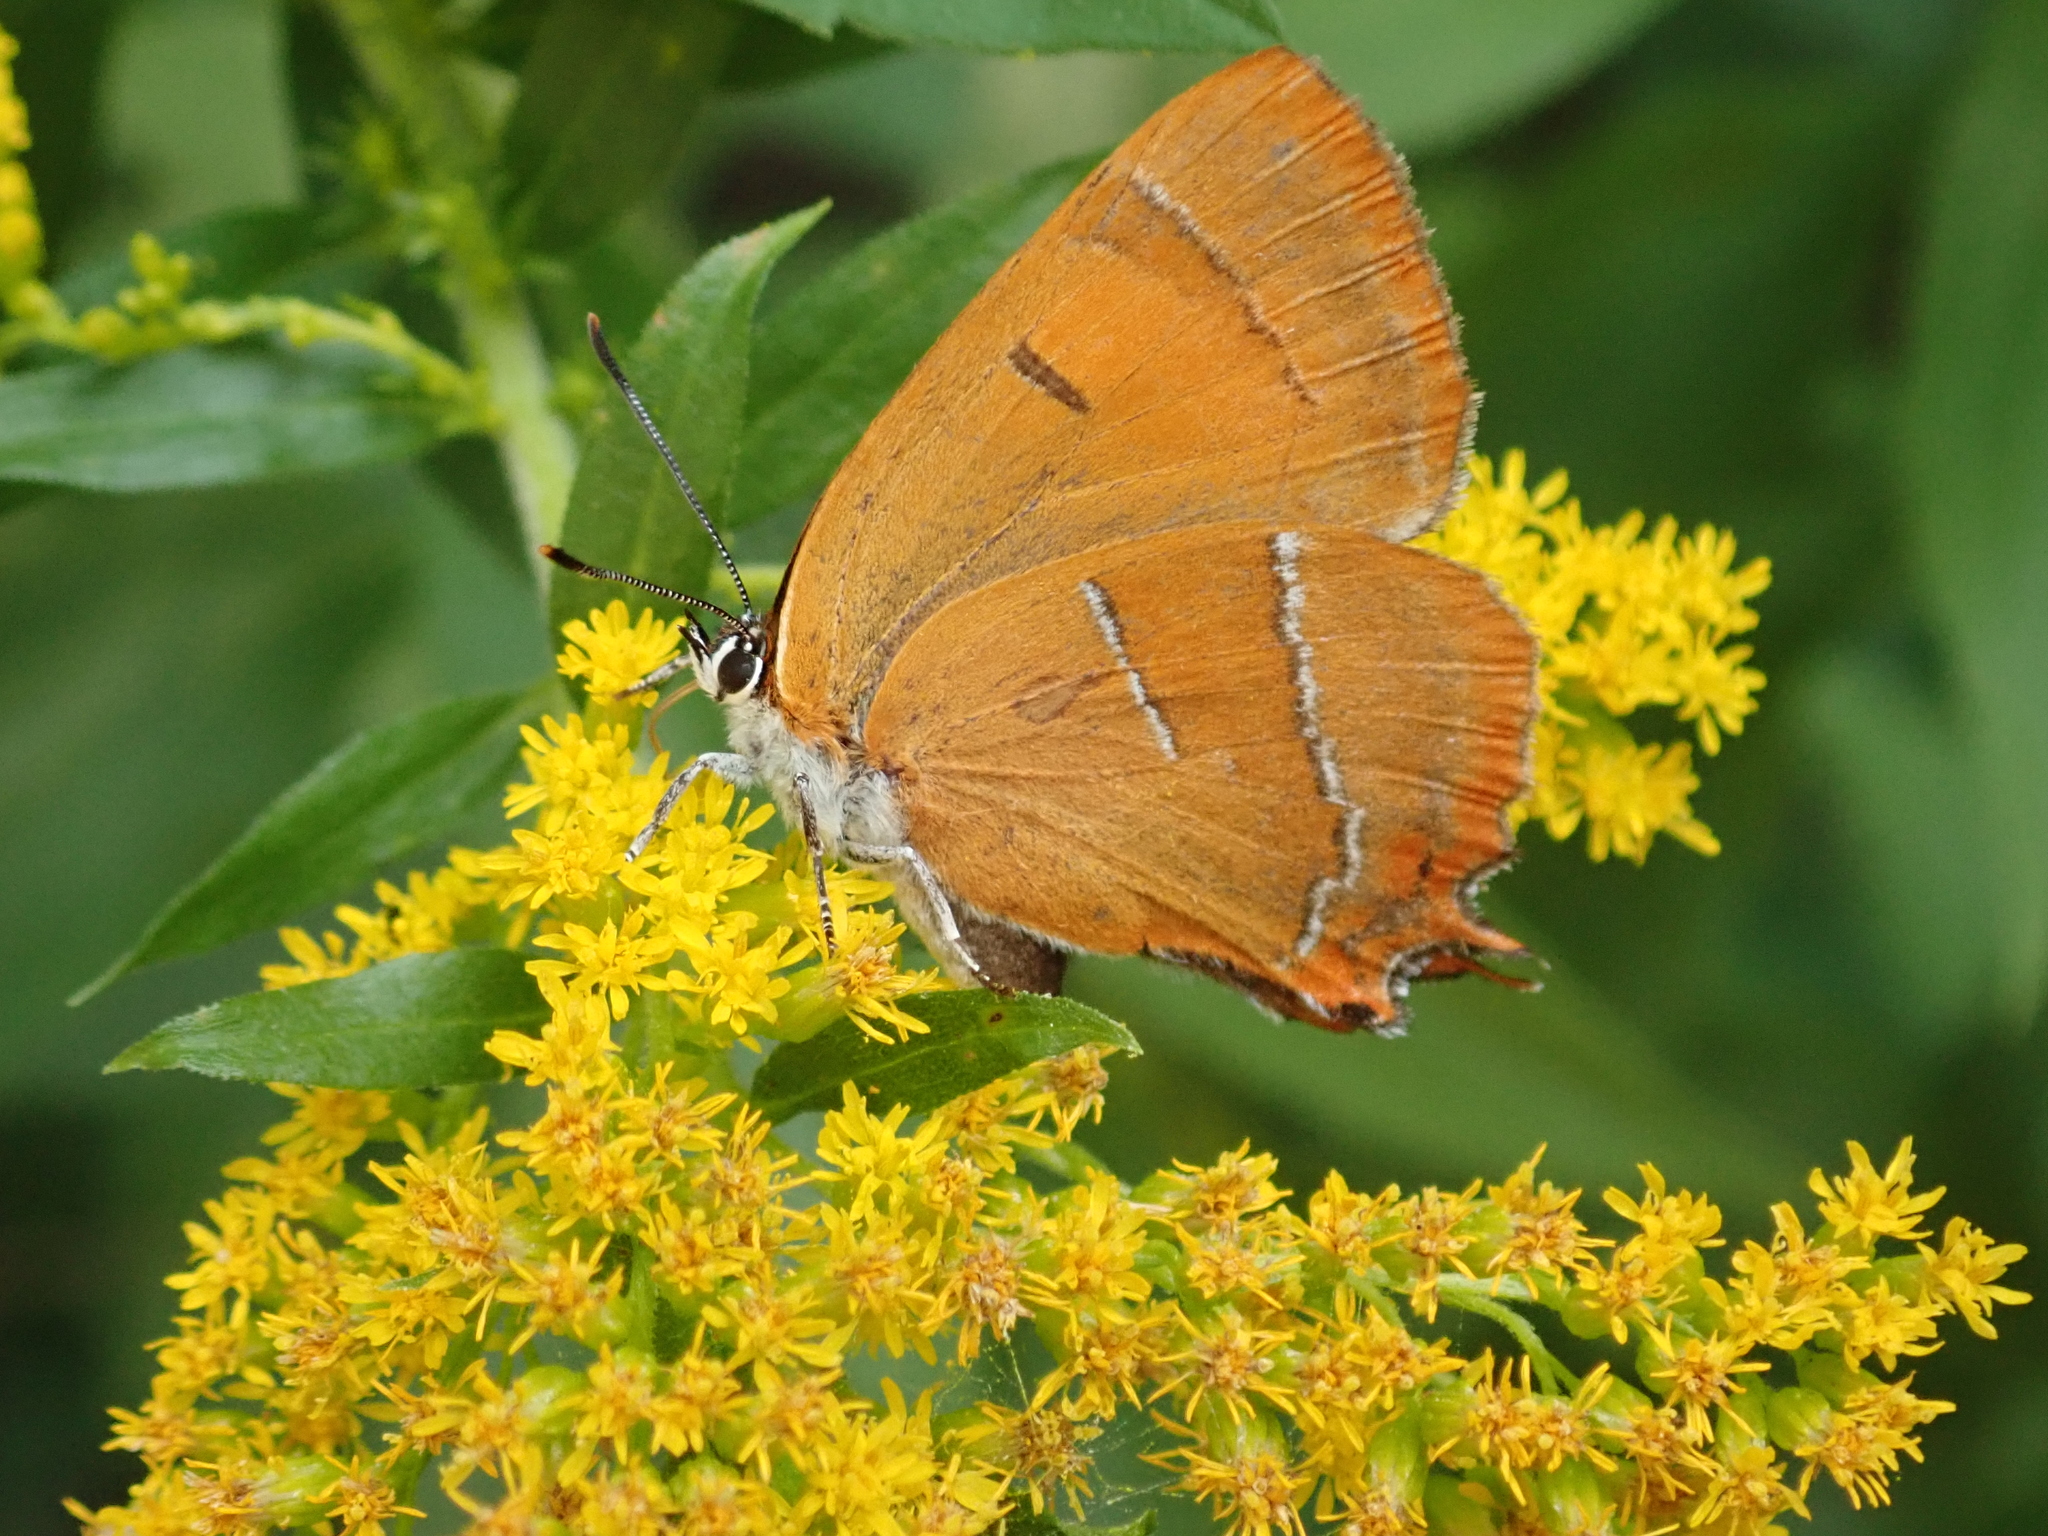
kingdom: Animalia
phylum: Arthropoda
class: Insecta
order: Lepidoptera
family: Lycaenidae
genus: Thecla
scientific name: Thecla betulae
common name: Brown hairstreak
